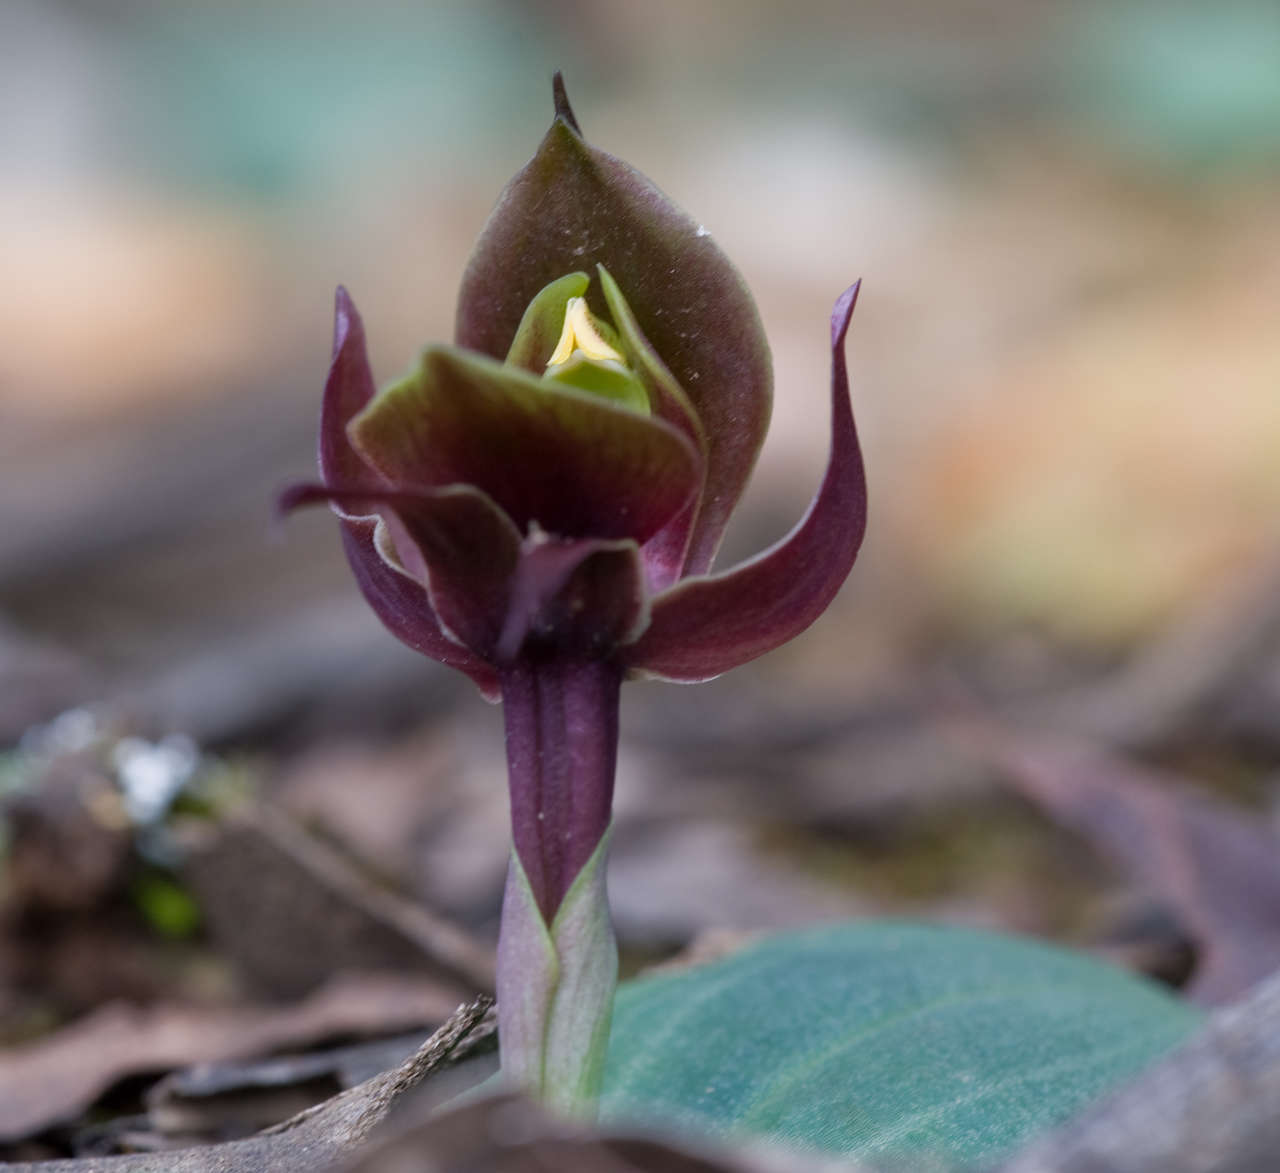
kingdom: Plantae
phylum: Tracheophyta
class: Liliopsida
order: Asparagales
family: Orchidaceae
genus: Chiloglottis
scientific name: Chiloglottis valida
